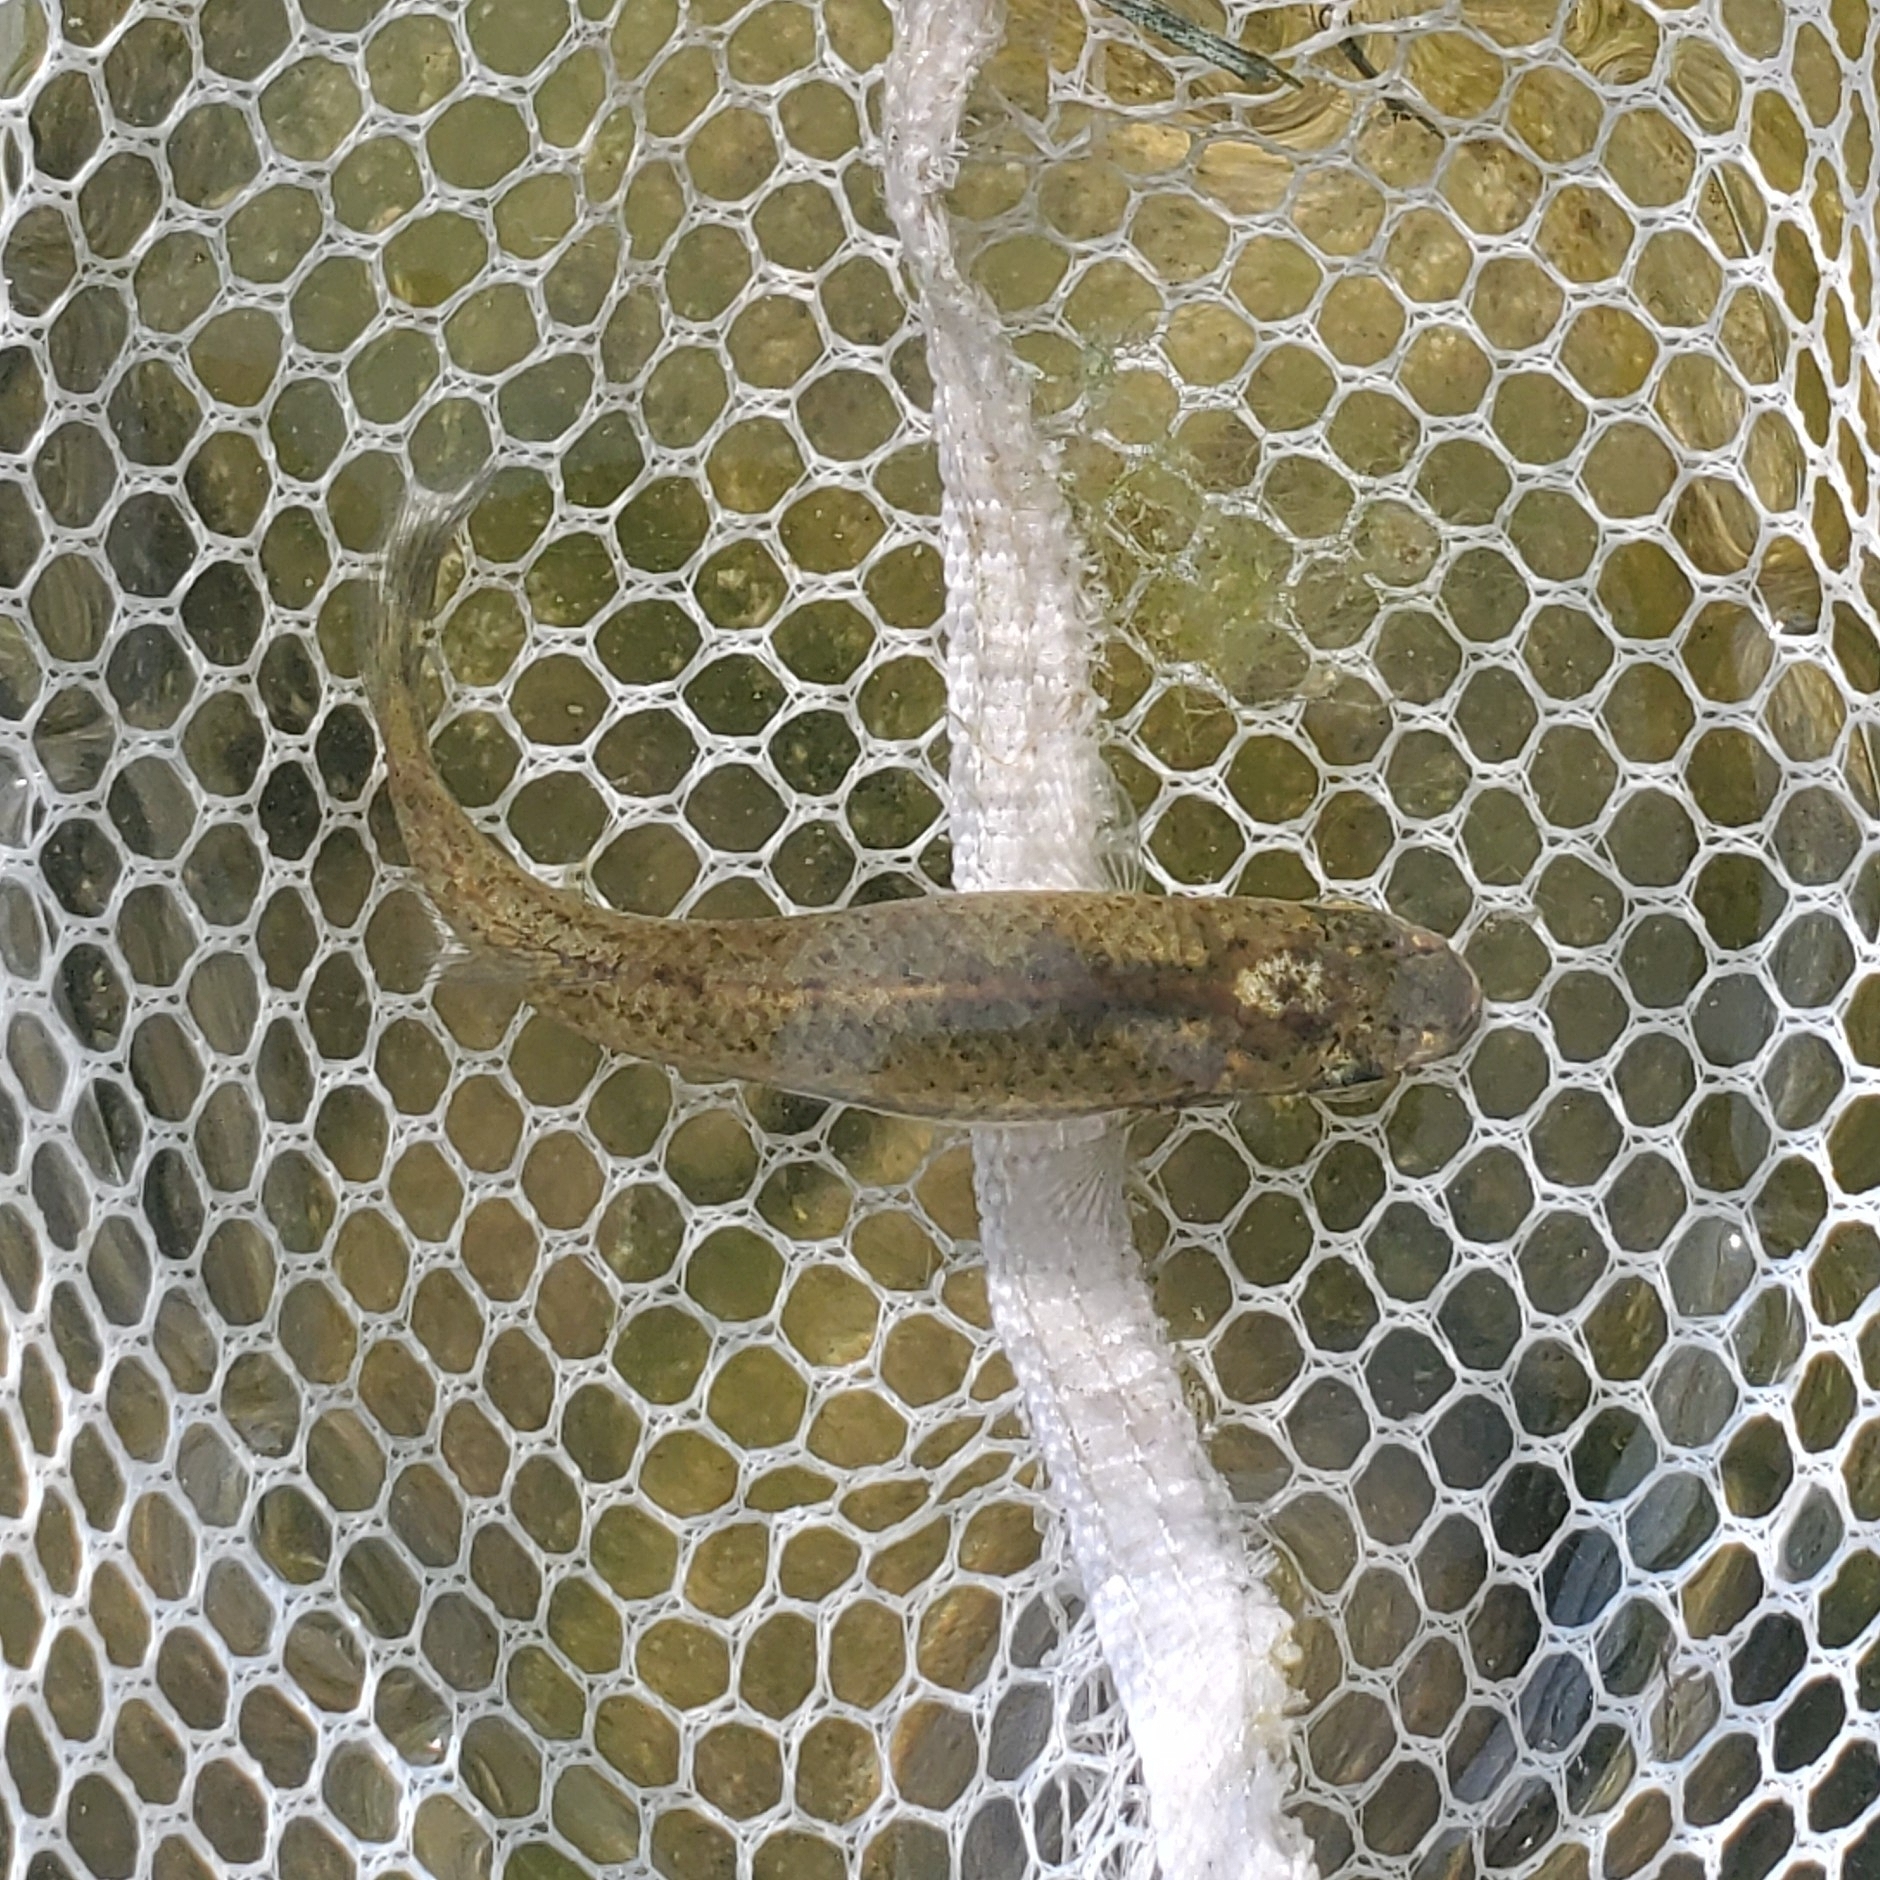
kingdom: Animalia
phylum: Chordata
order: Cyprinodontiformes
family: Fundulidae
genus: Fundulus
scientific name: Fundulus notatus
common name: Blackstripe topminnow
